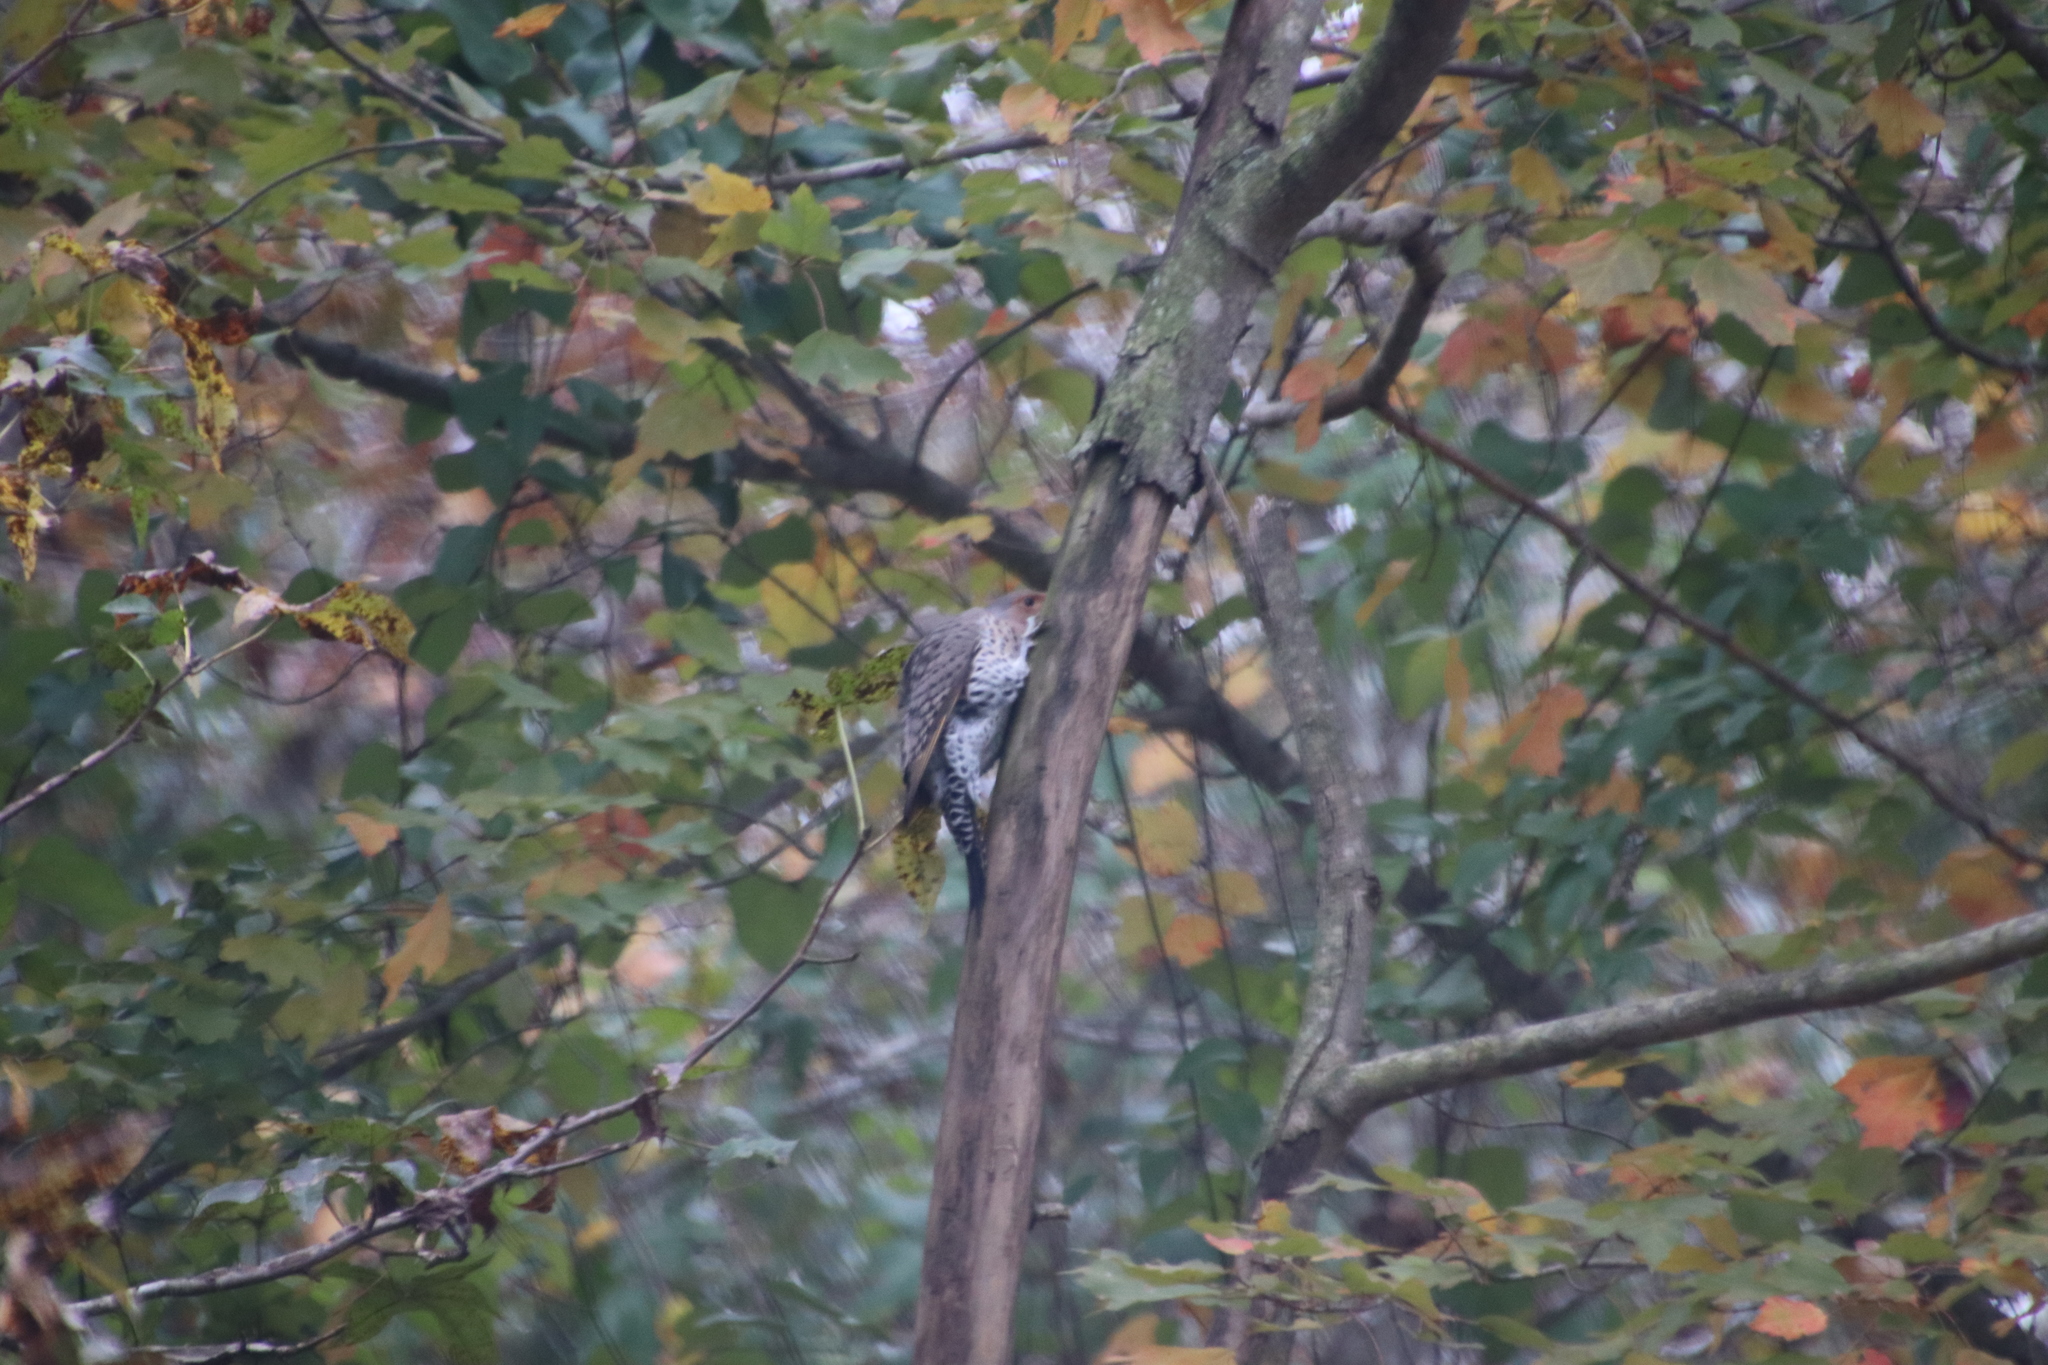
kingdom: Animalia
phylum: Chordata
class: Aves
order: Piciformes
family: Picidae
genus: Colaptes
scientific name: Colaptes auratus
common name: Northern flicker
